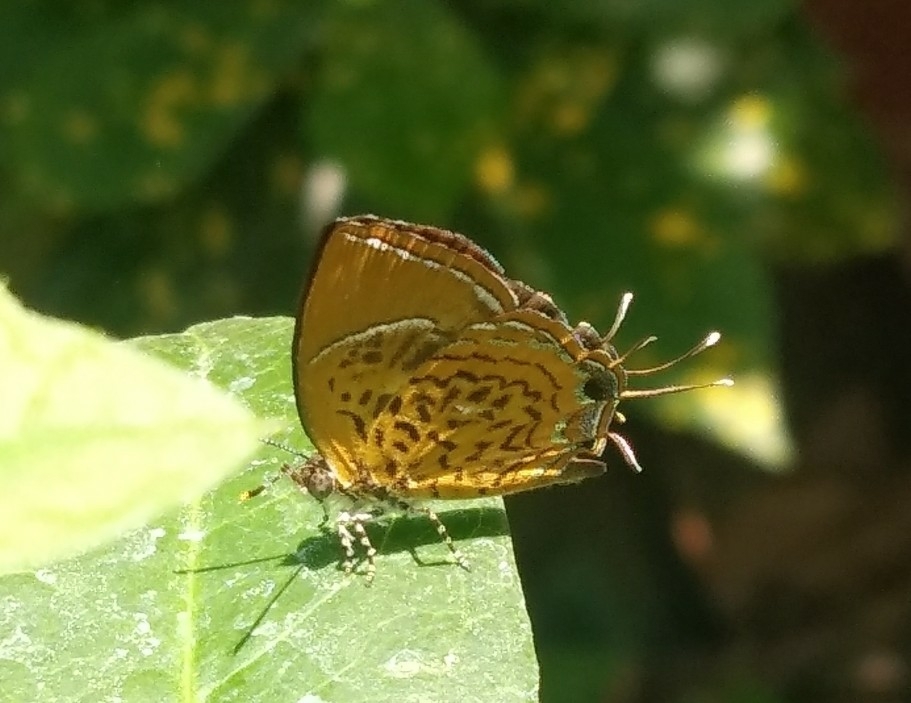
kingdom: Animalia
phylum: Arthropoda
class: Insecta
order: Lepidoptera
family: Lycaenidae
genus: Rathinda
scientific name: Rathinda amor
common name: Monkey puzzle
